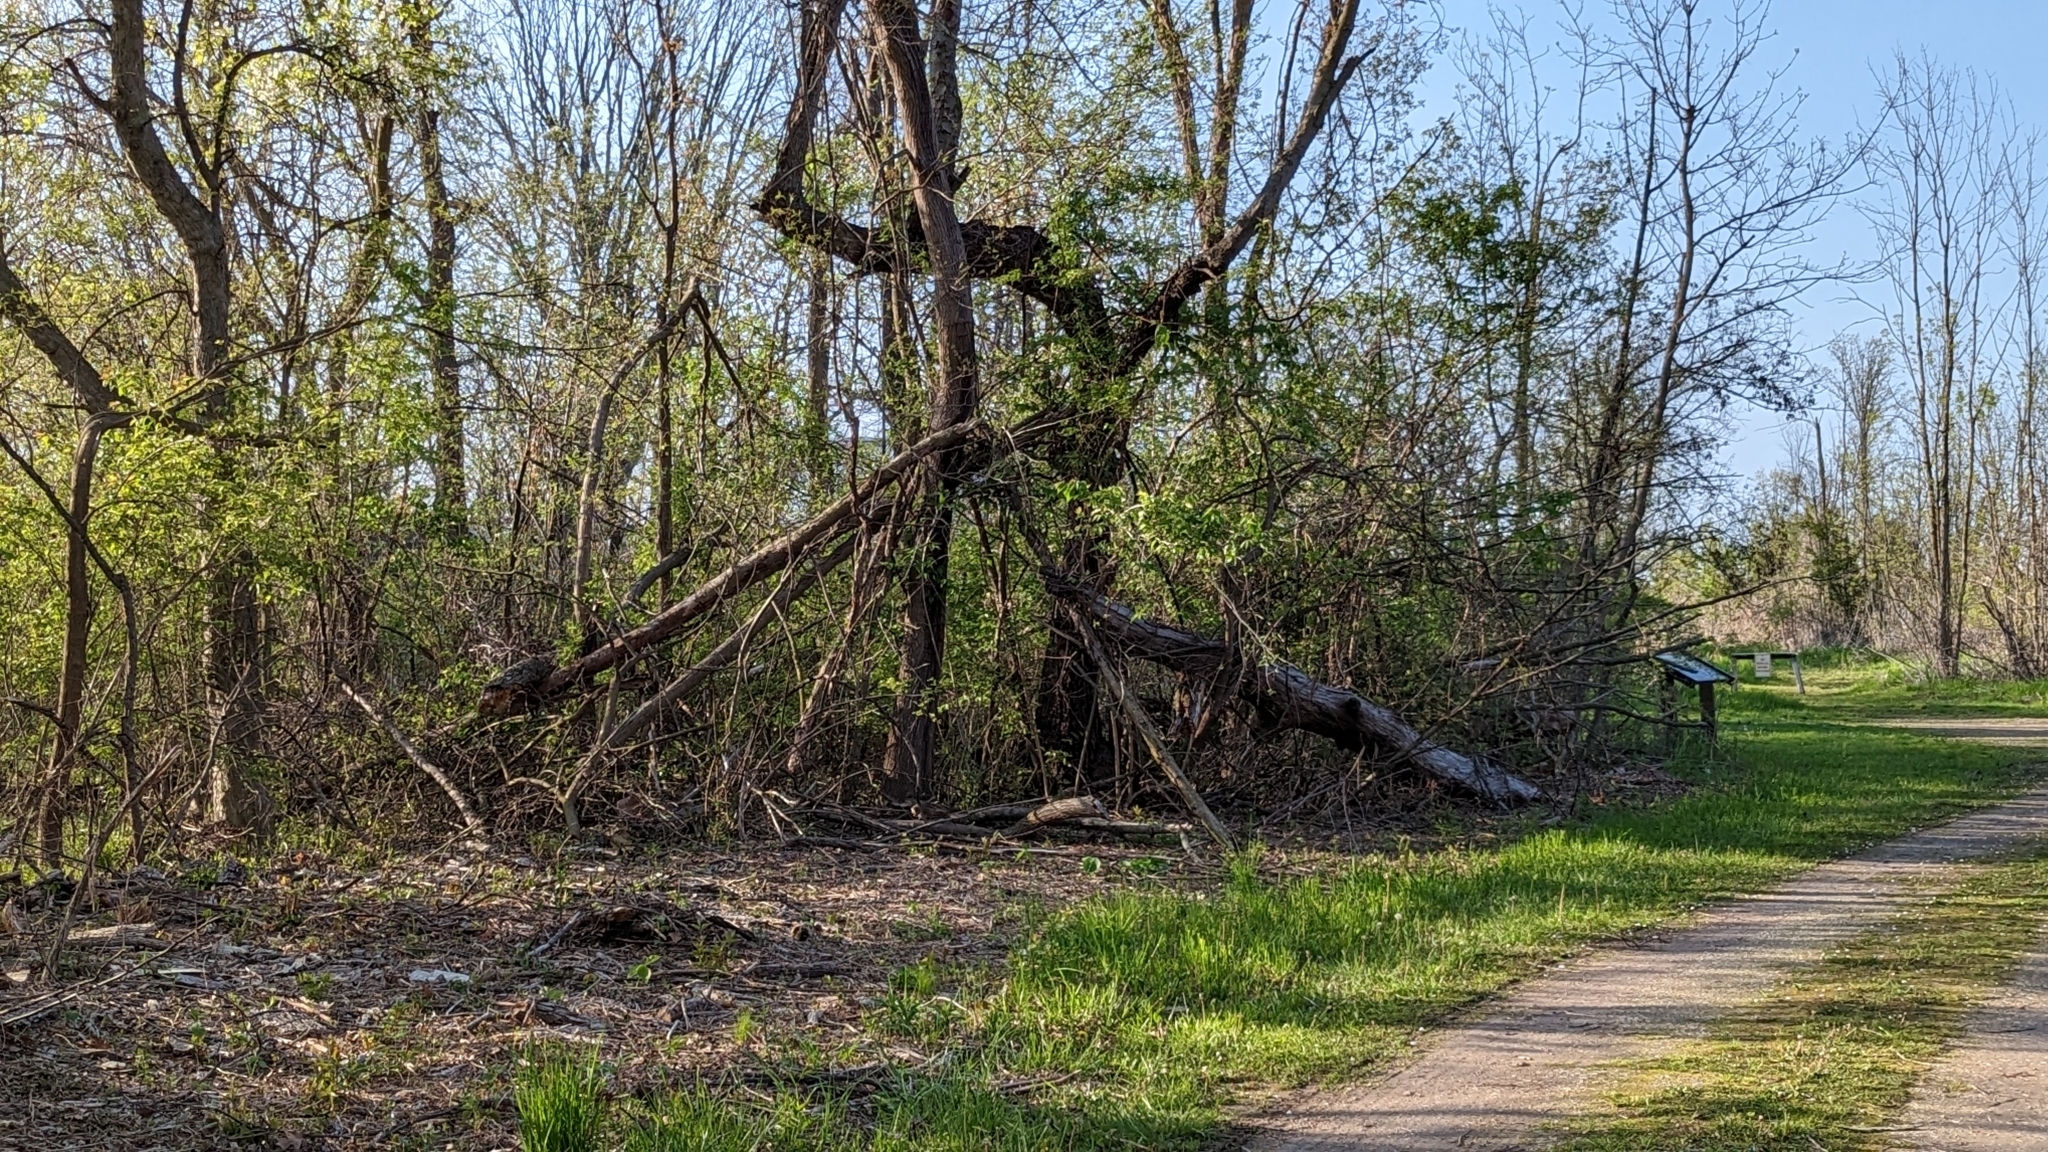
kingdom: Animalia
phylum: Chordata
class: Mammalia
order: Carnivora
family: Mustelidae
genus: Mustela
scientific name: Mustela erminea
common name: Stoat
